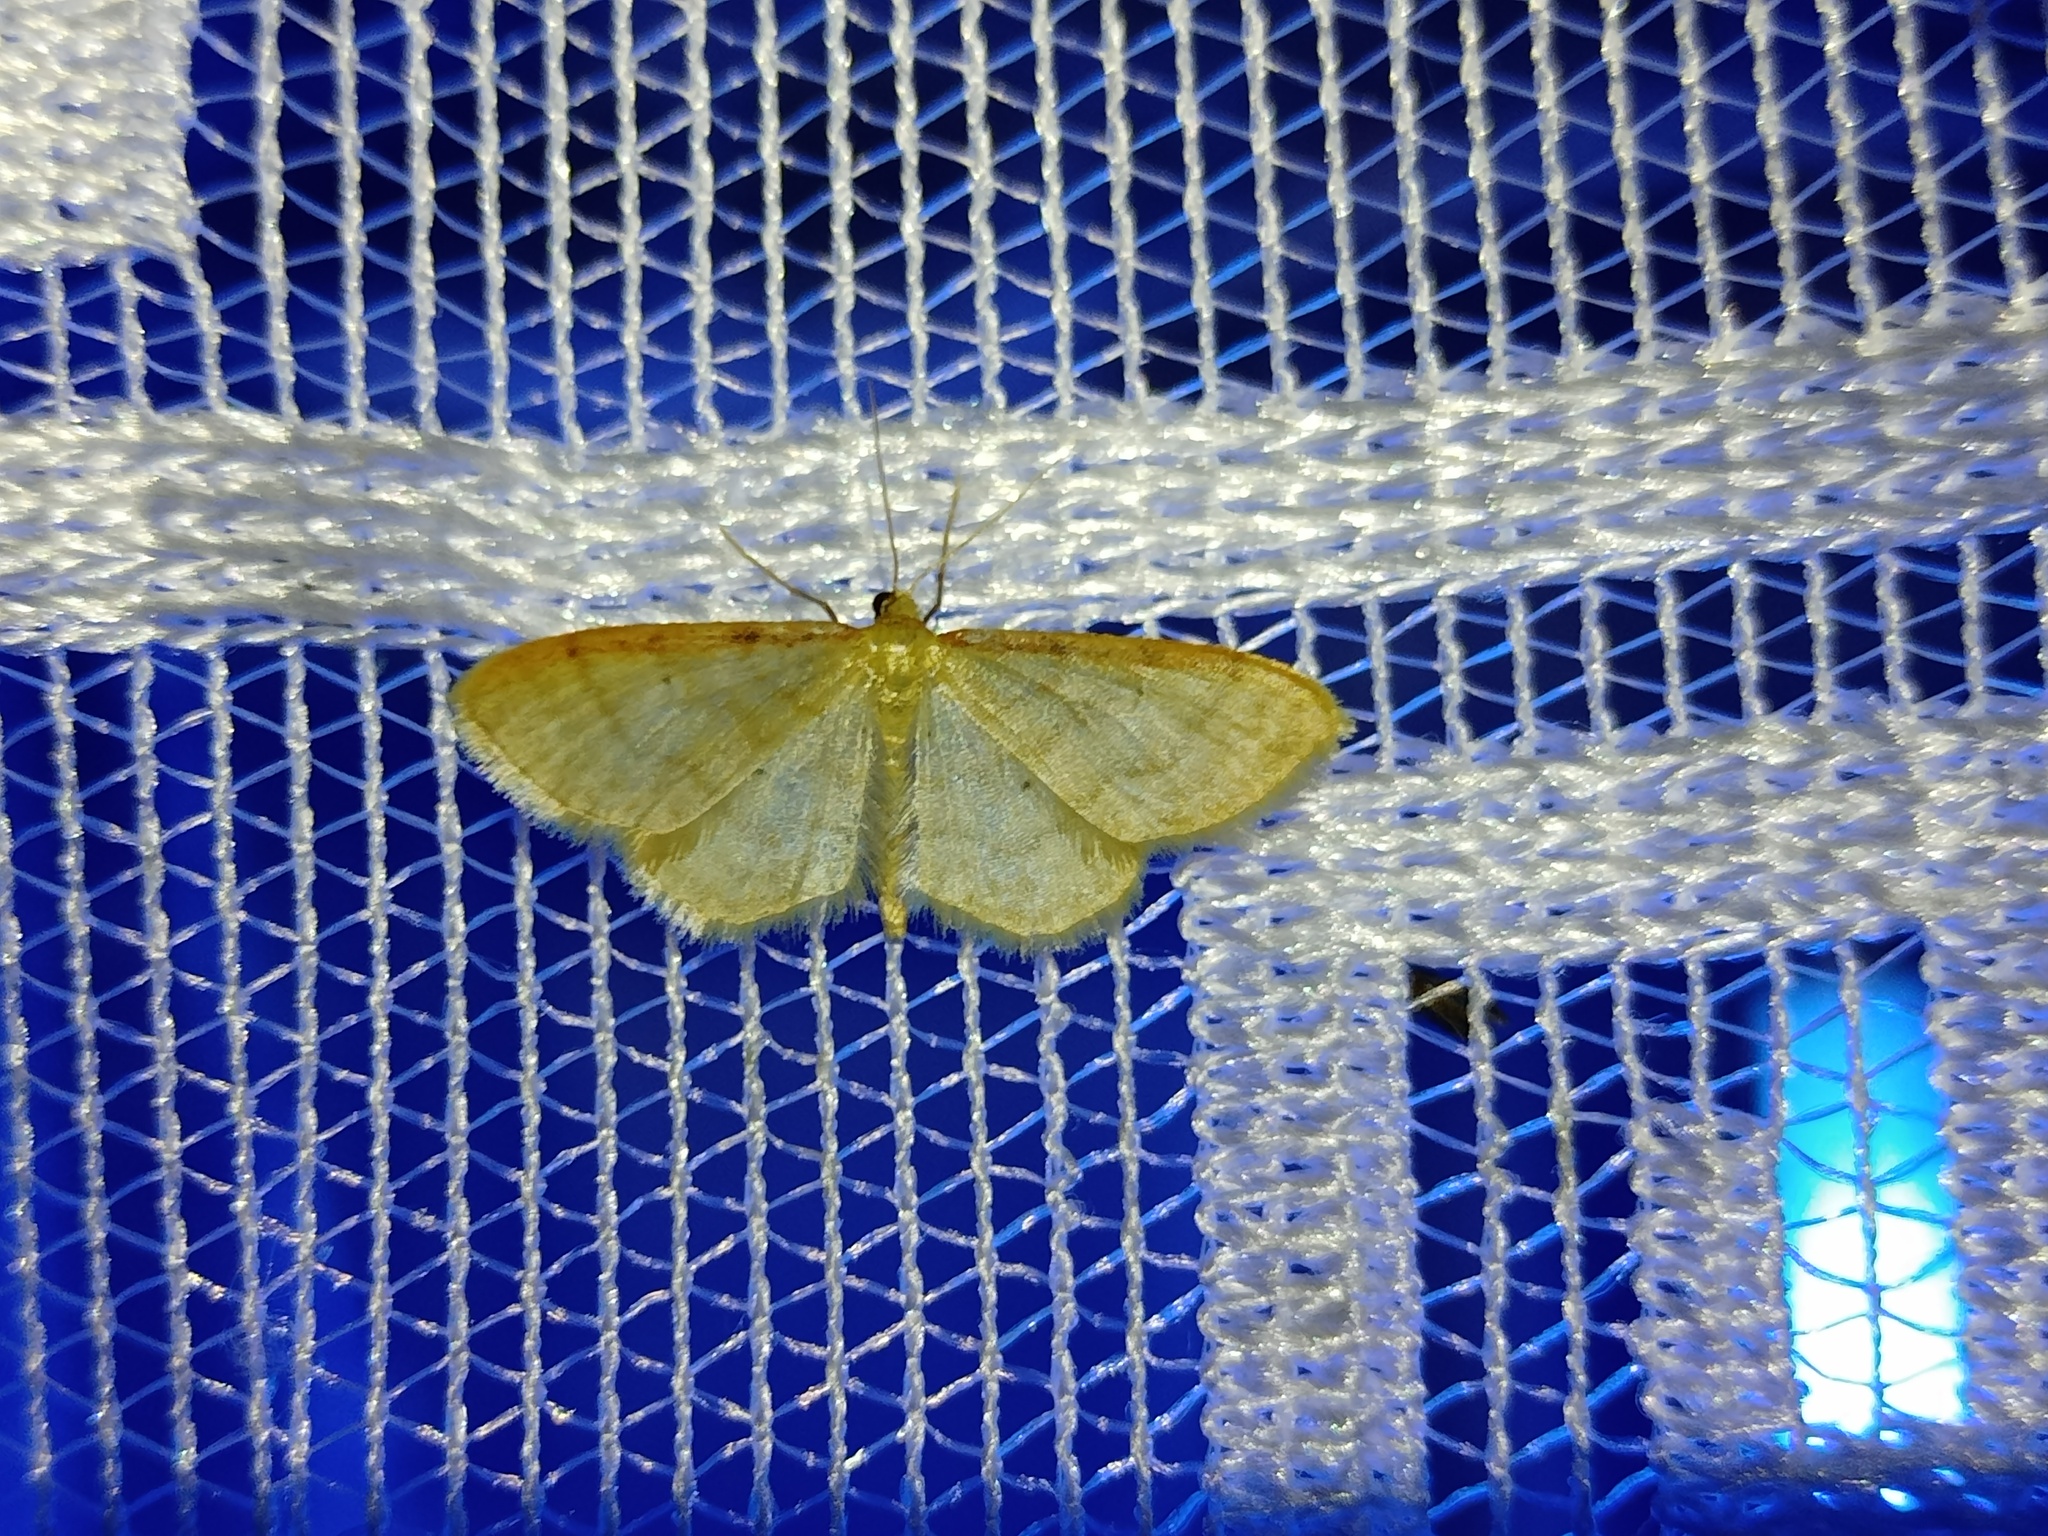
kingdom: Animalia
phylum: Arthropoda
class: Insecta
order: Lepidoptera
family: Geometridae
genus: Idaea
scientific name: Idaea humiliata
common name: Isle of wight wave
